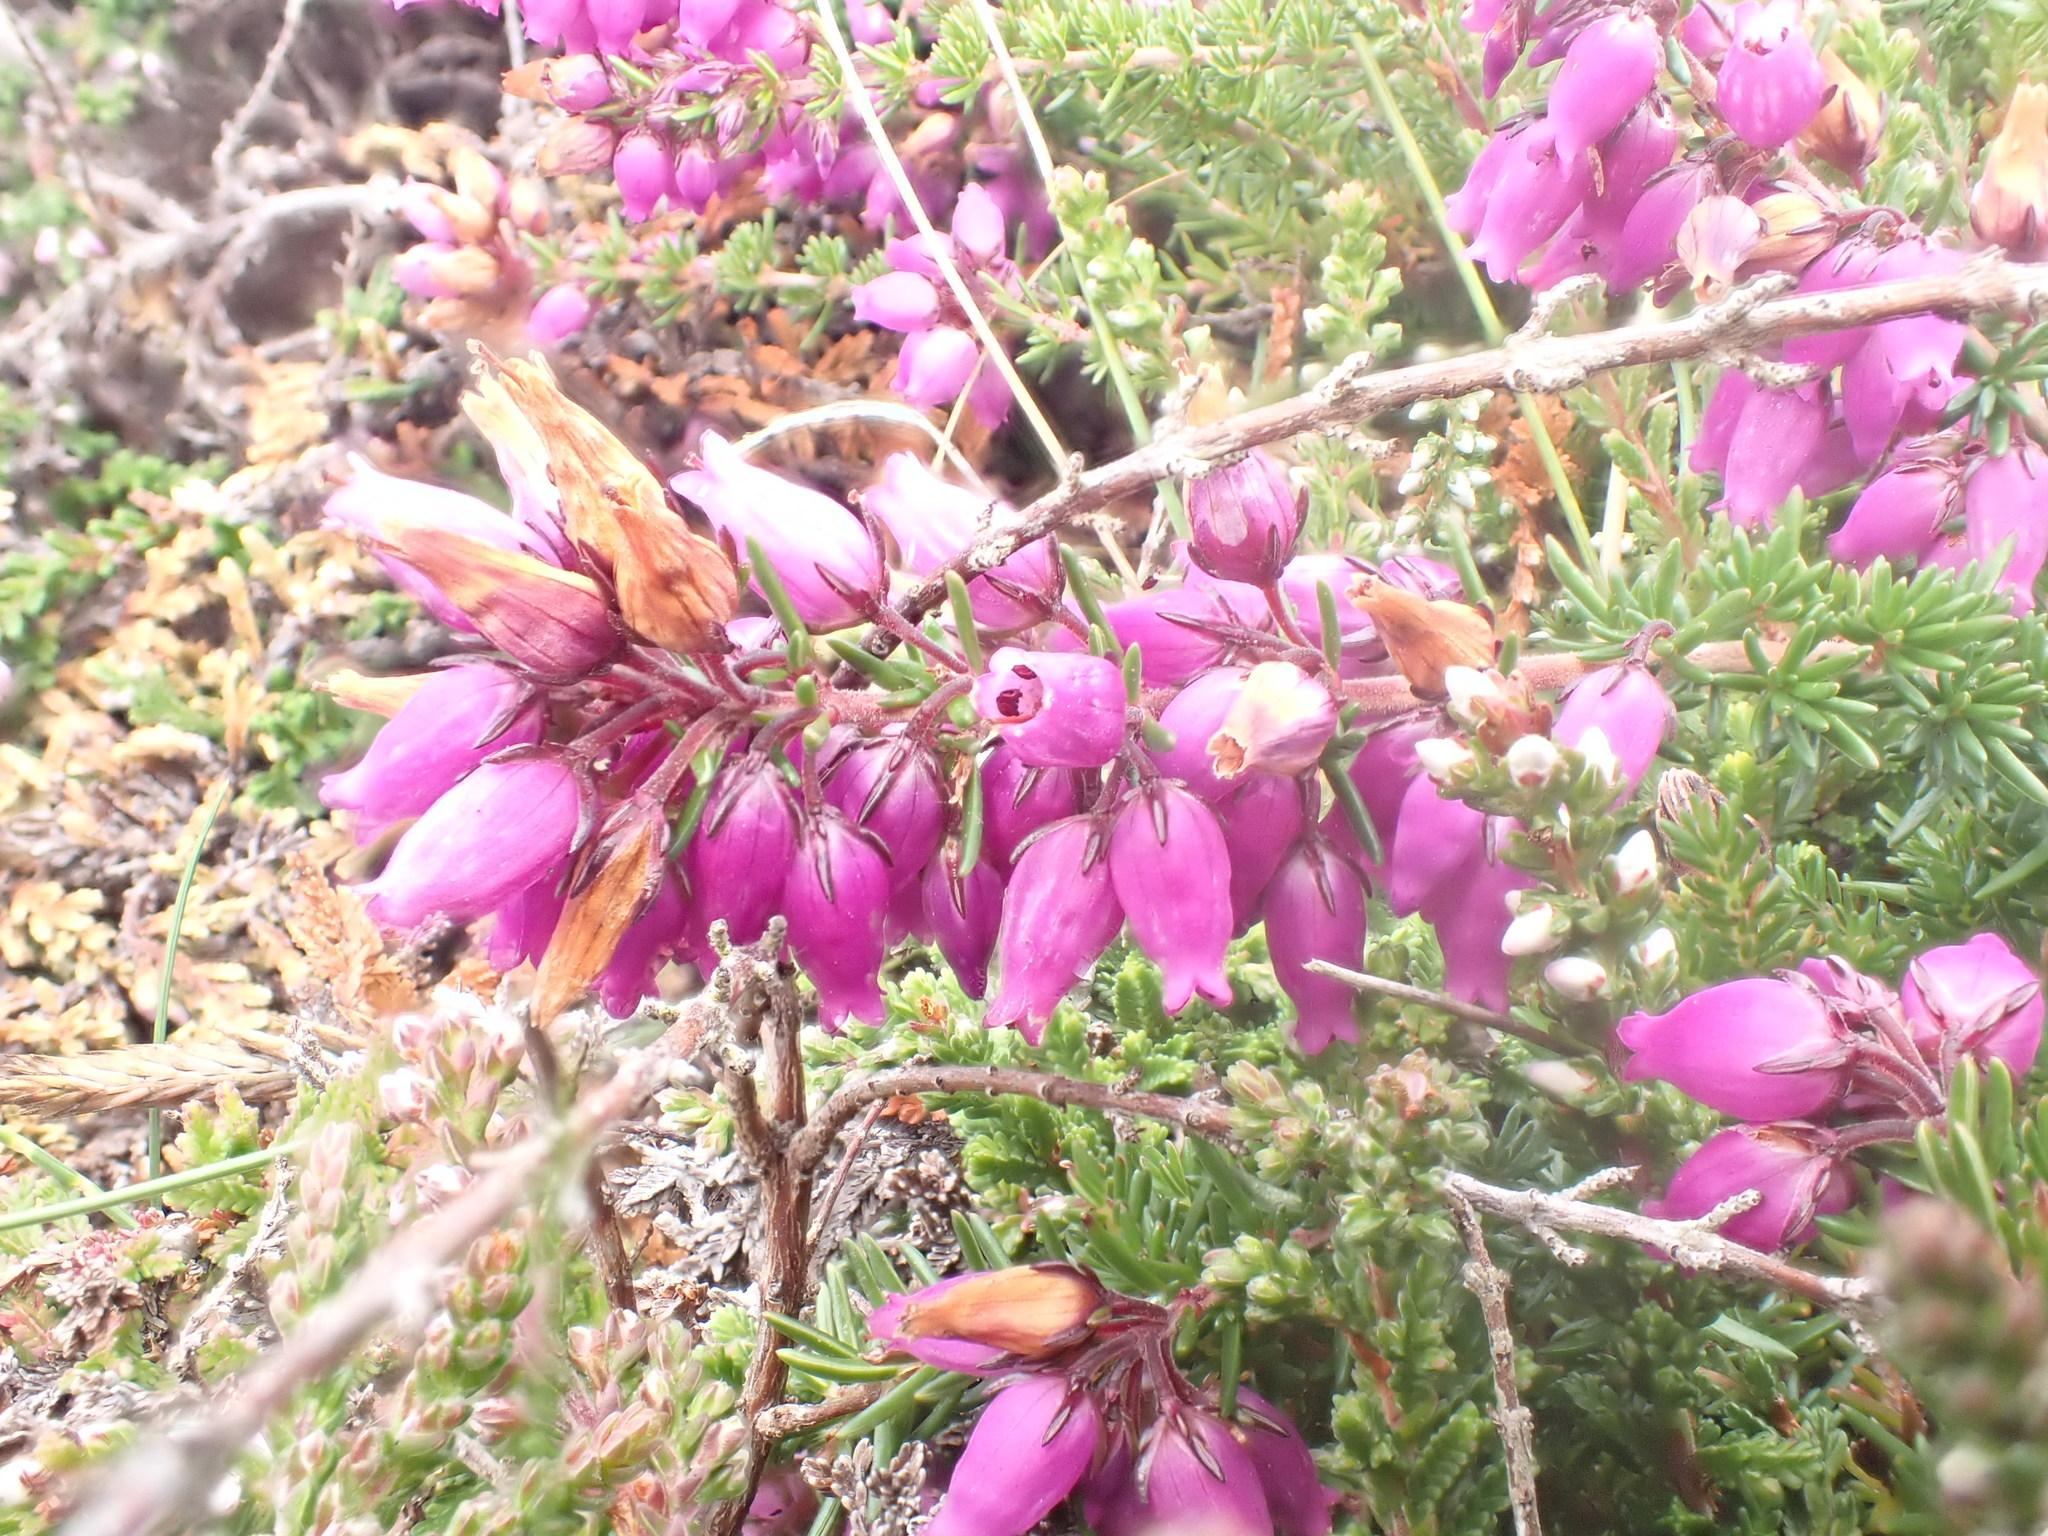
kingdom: Plantae
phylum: Tracheophyta
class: Magnoliopsida
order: Ericales
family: Ericaceae
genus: Erica
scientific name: Erica cinerea
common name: Bell heather
